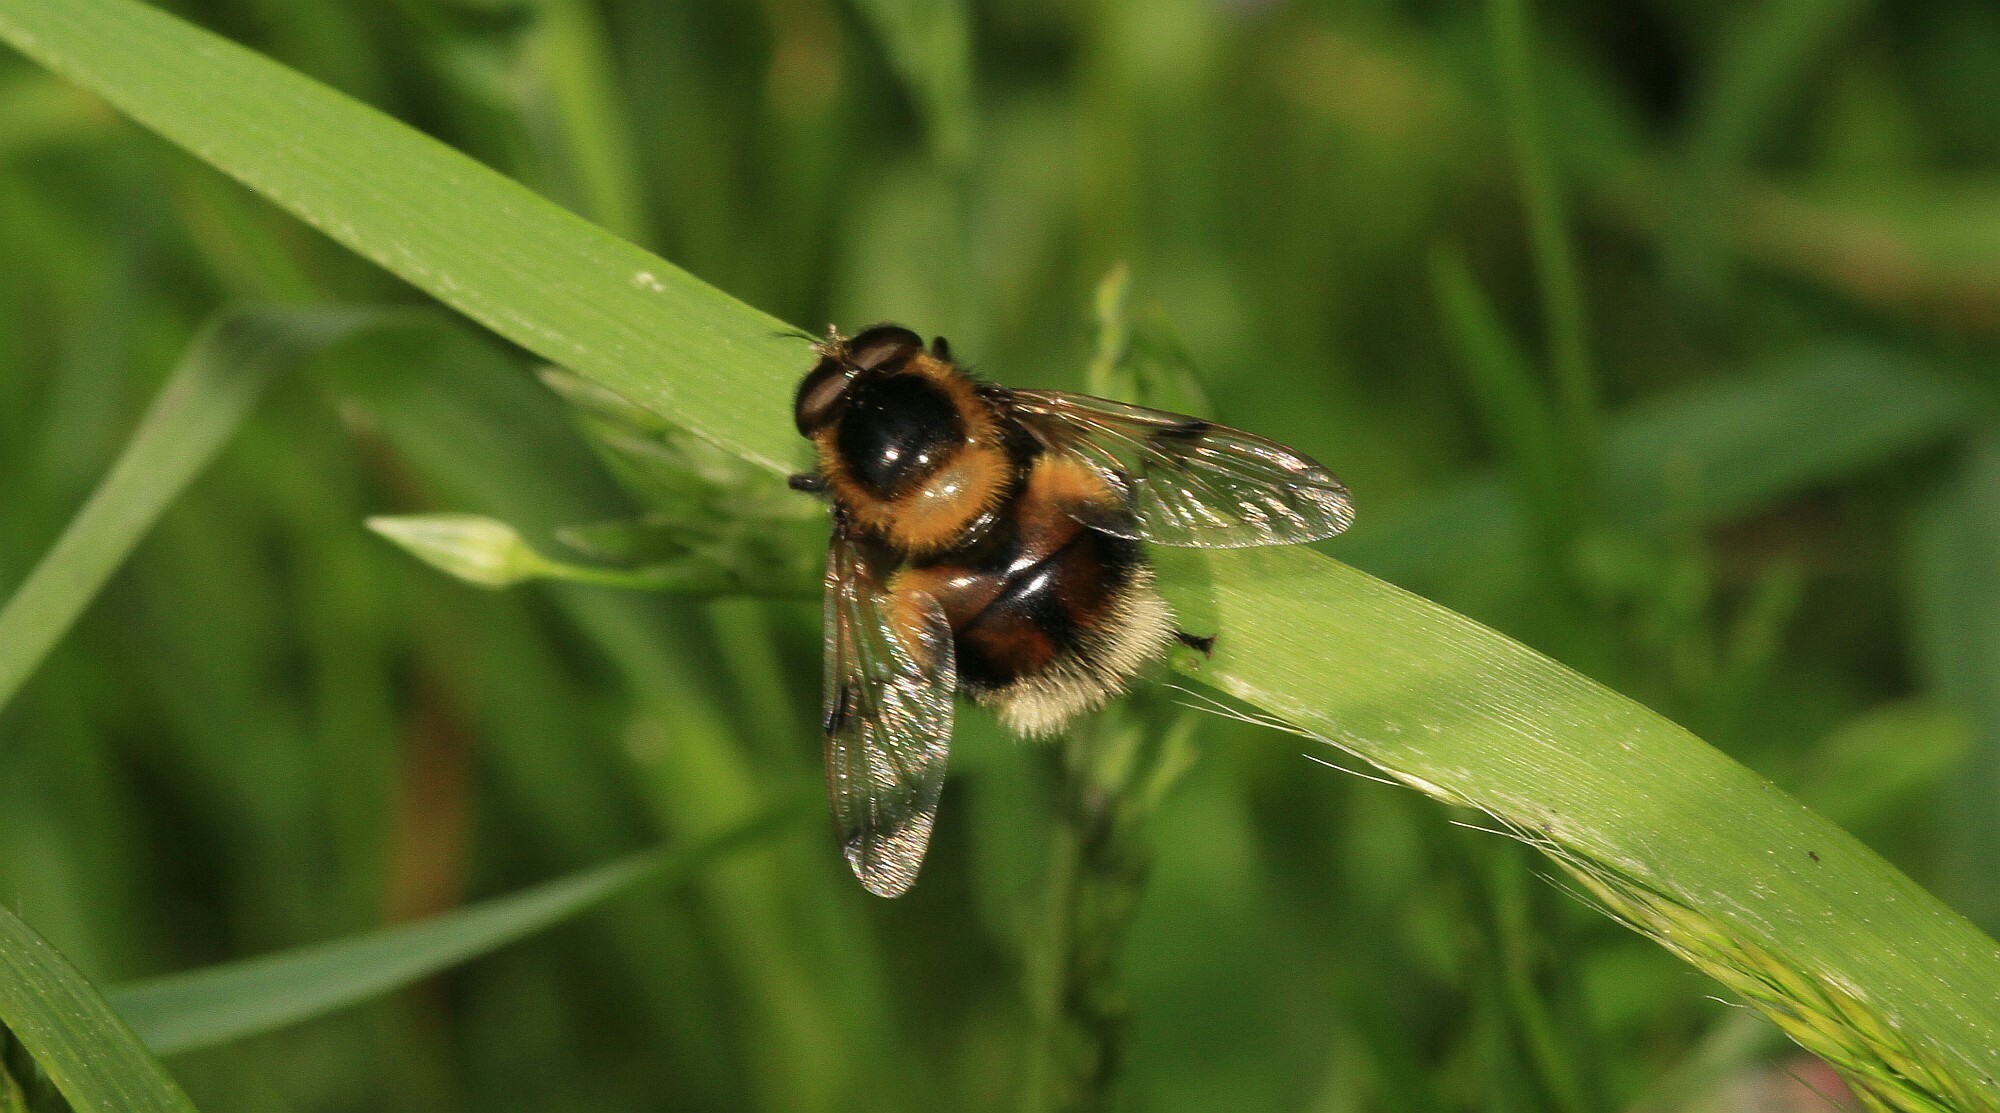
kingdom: Animalia
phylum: Arthropoda
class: Insecta
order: Diptera
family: Syrphidae
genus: Volucella
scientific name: Volucella bombylans
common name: Bumble bee hover fly
